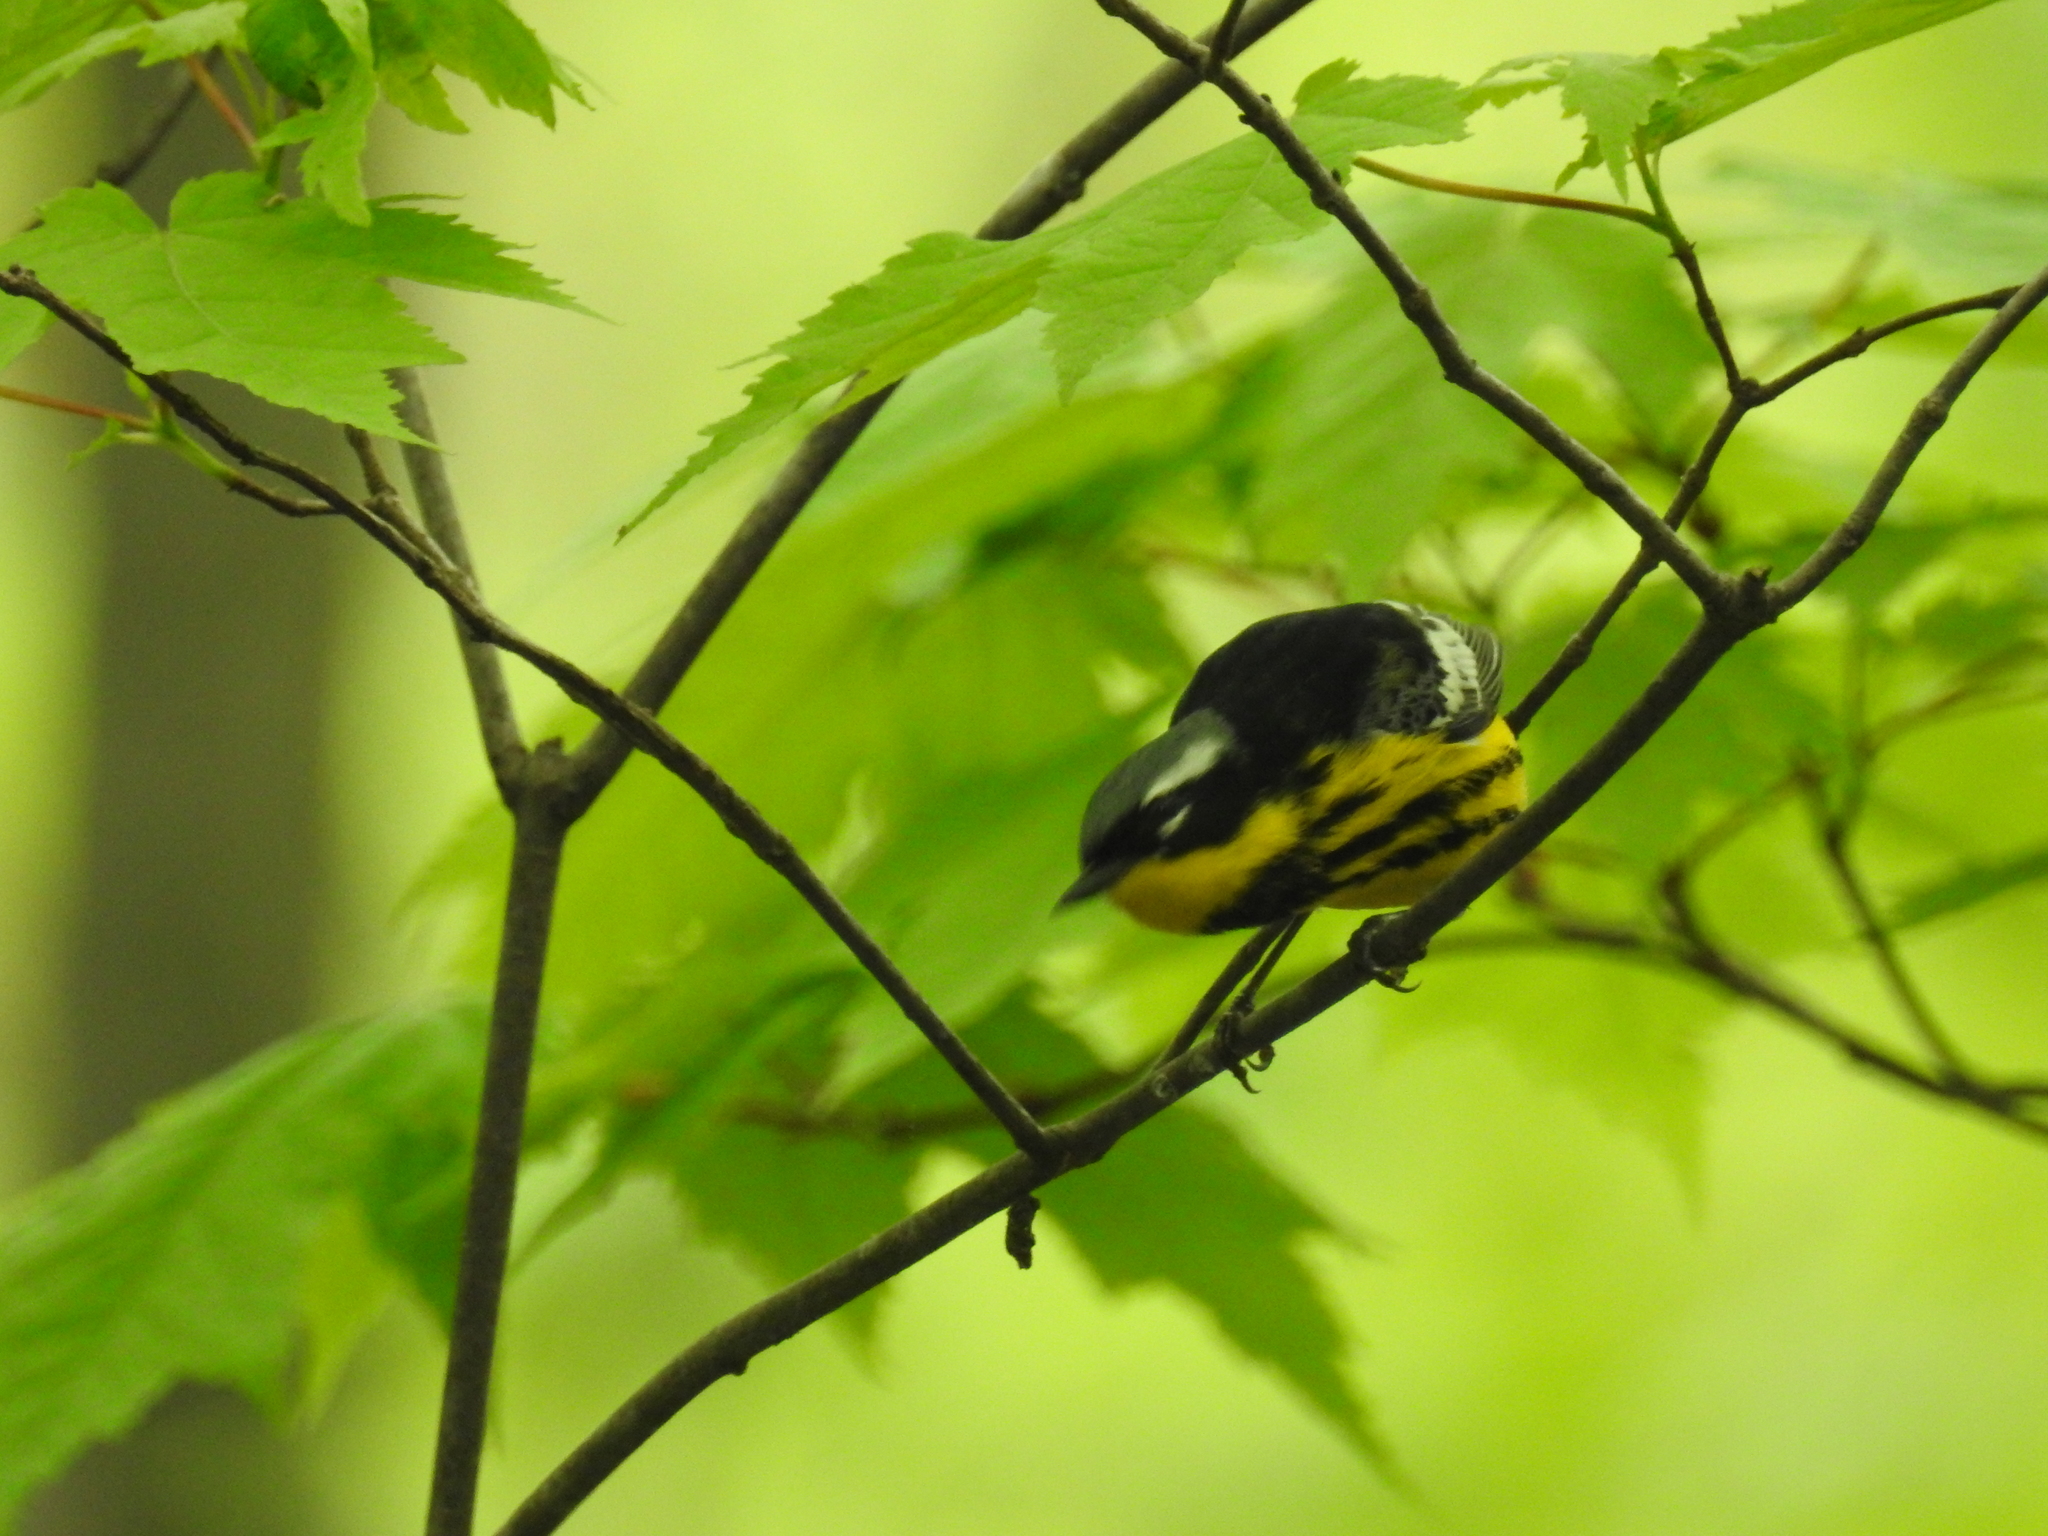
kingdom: Animalia
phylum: Chordata
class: Aves
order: Passeriformes
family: Parulidae
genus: Setophaga
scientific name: Setophaga magnolia
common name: Magnolia warbler
